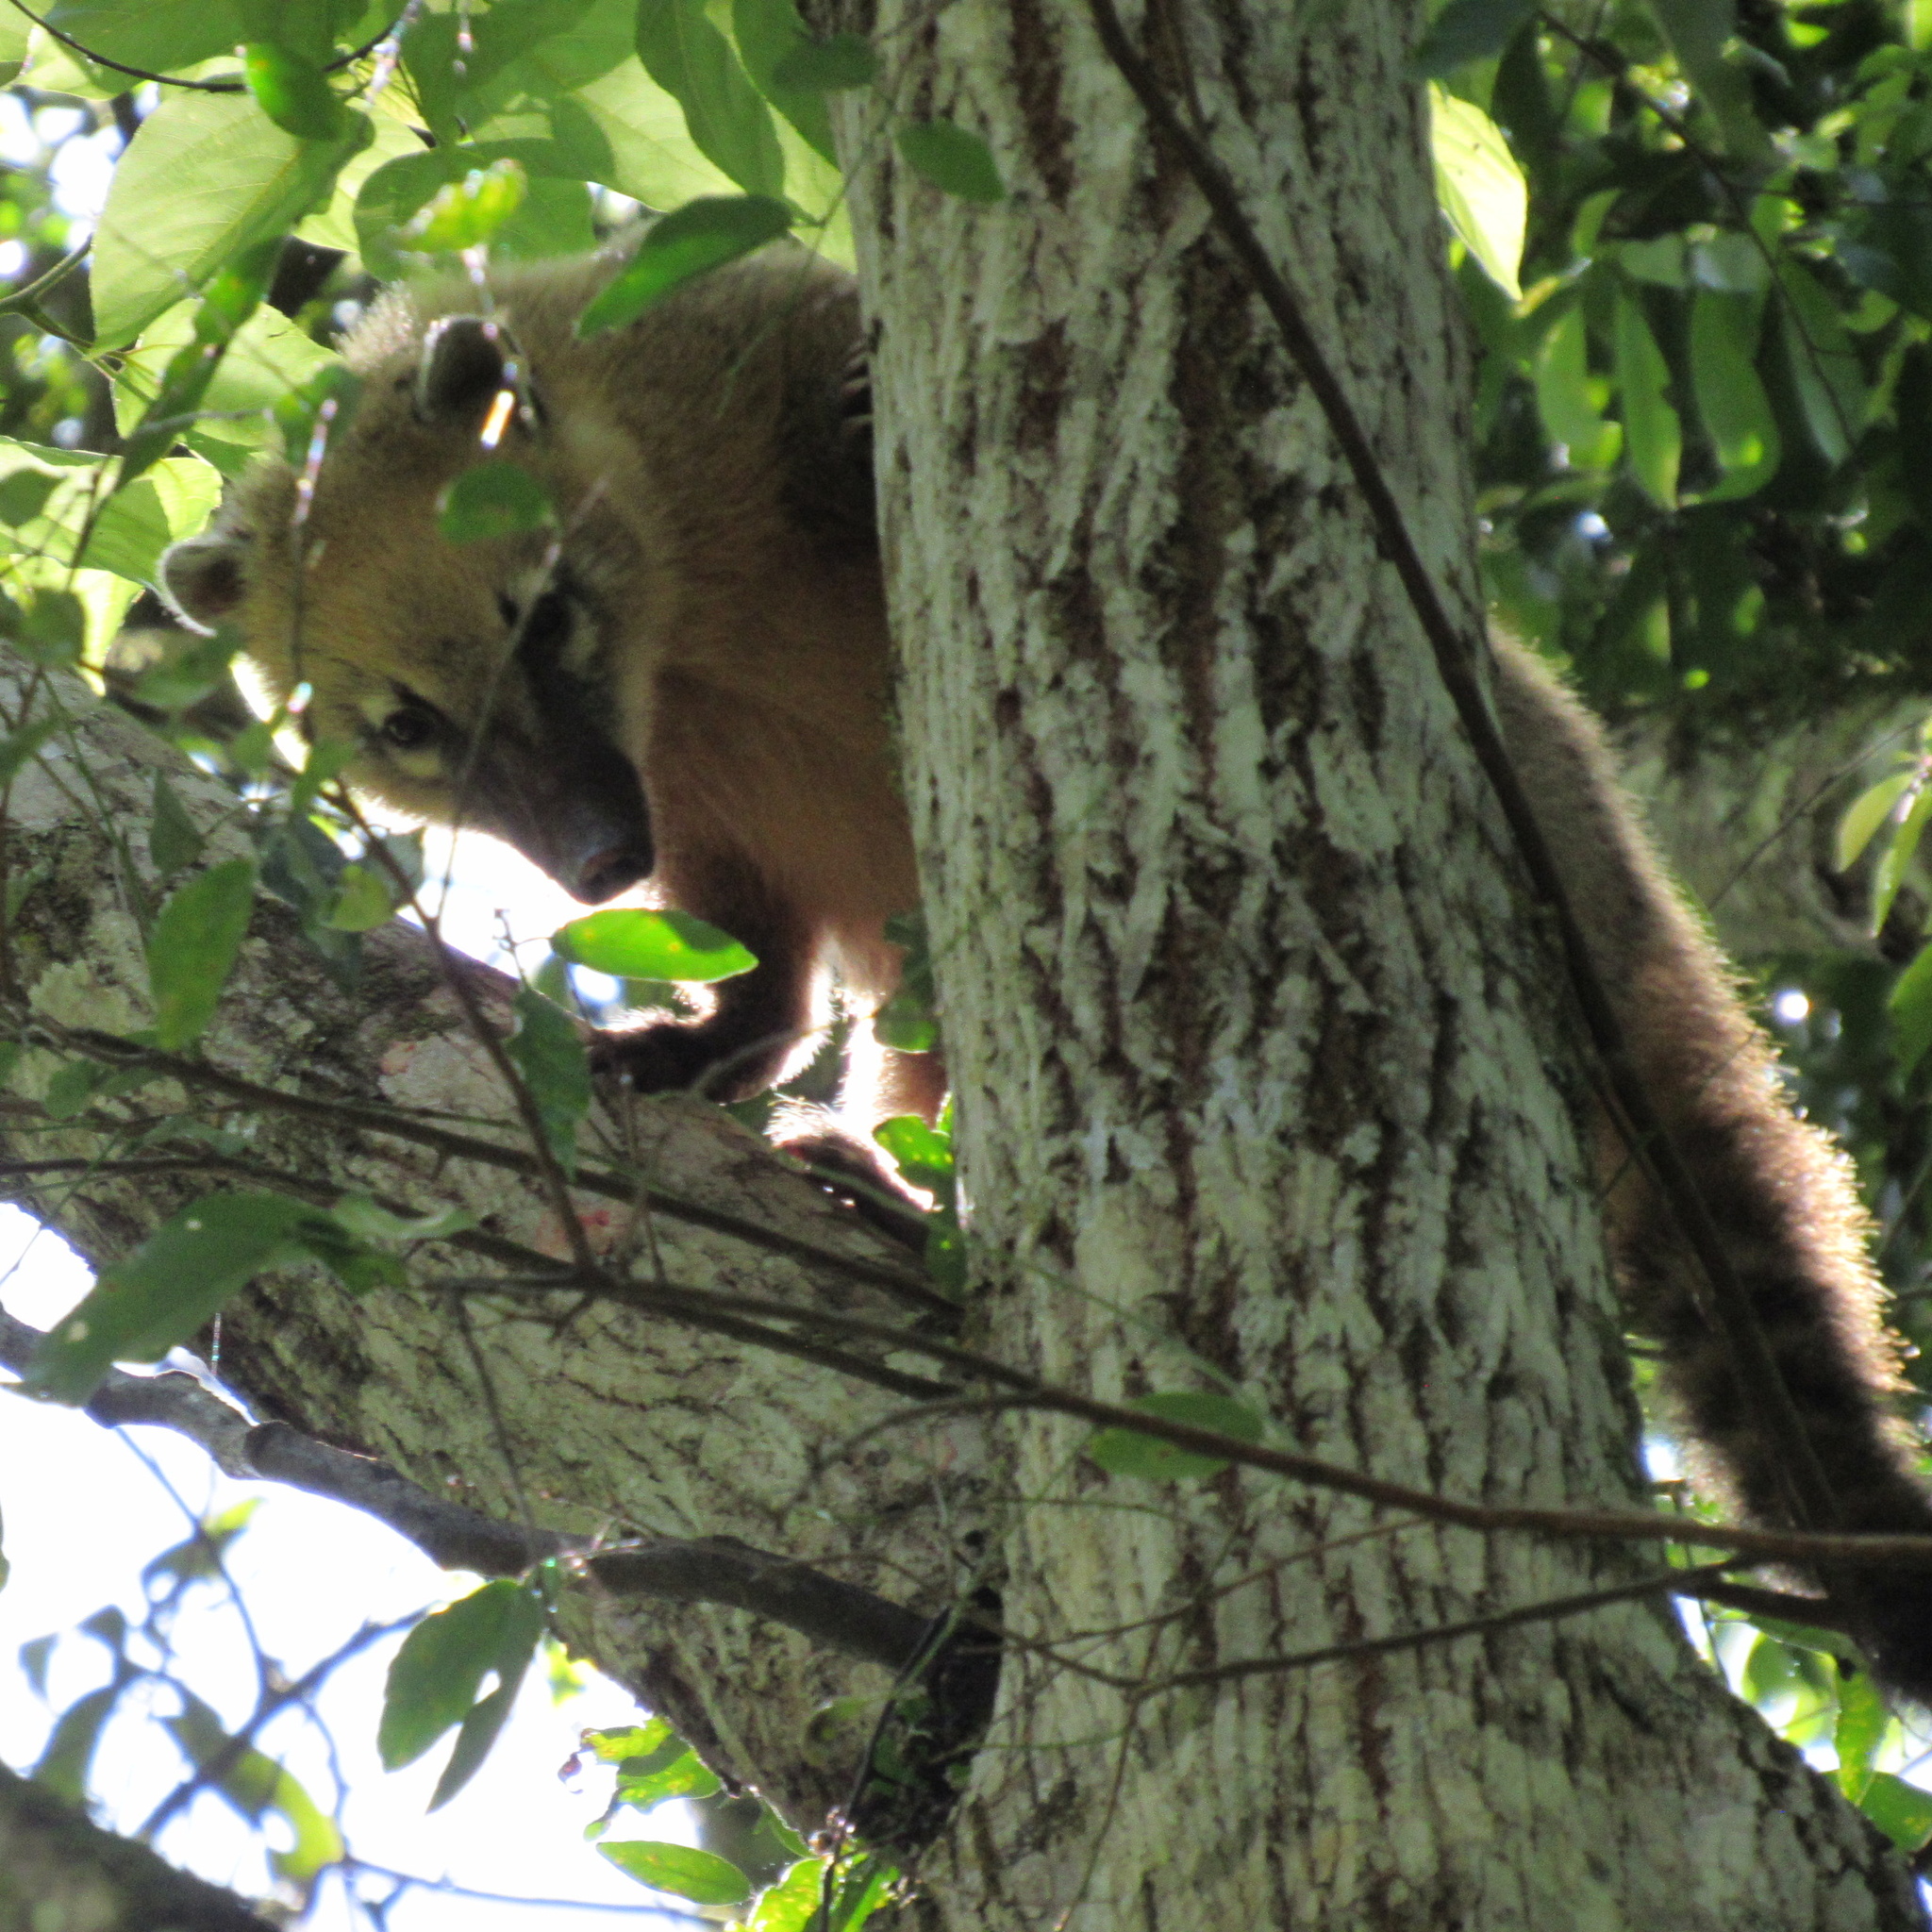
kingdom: Animalia
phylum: Chordata
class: Mammalia
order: Carnivora
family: Procyonidae
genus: Nasua
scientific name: Nasua nasua
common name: South american coati
